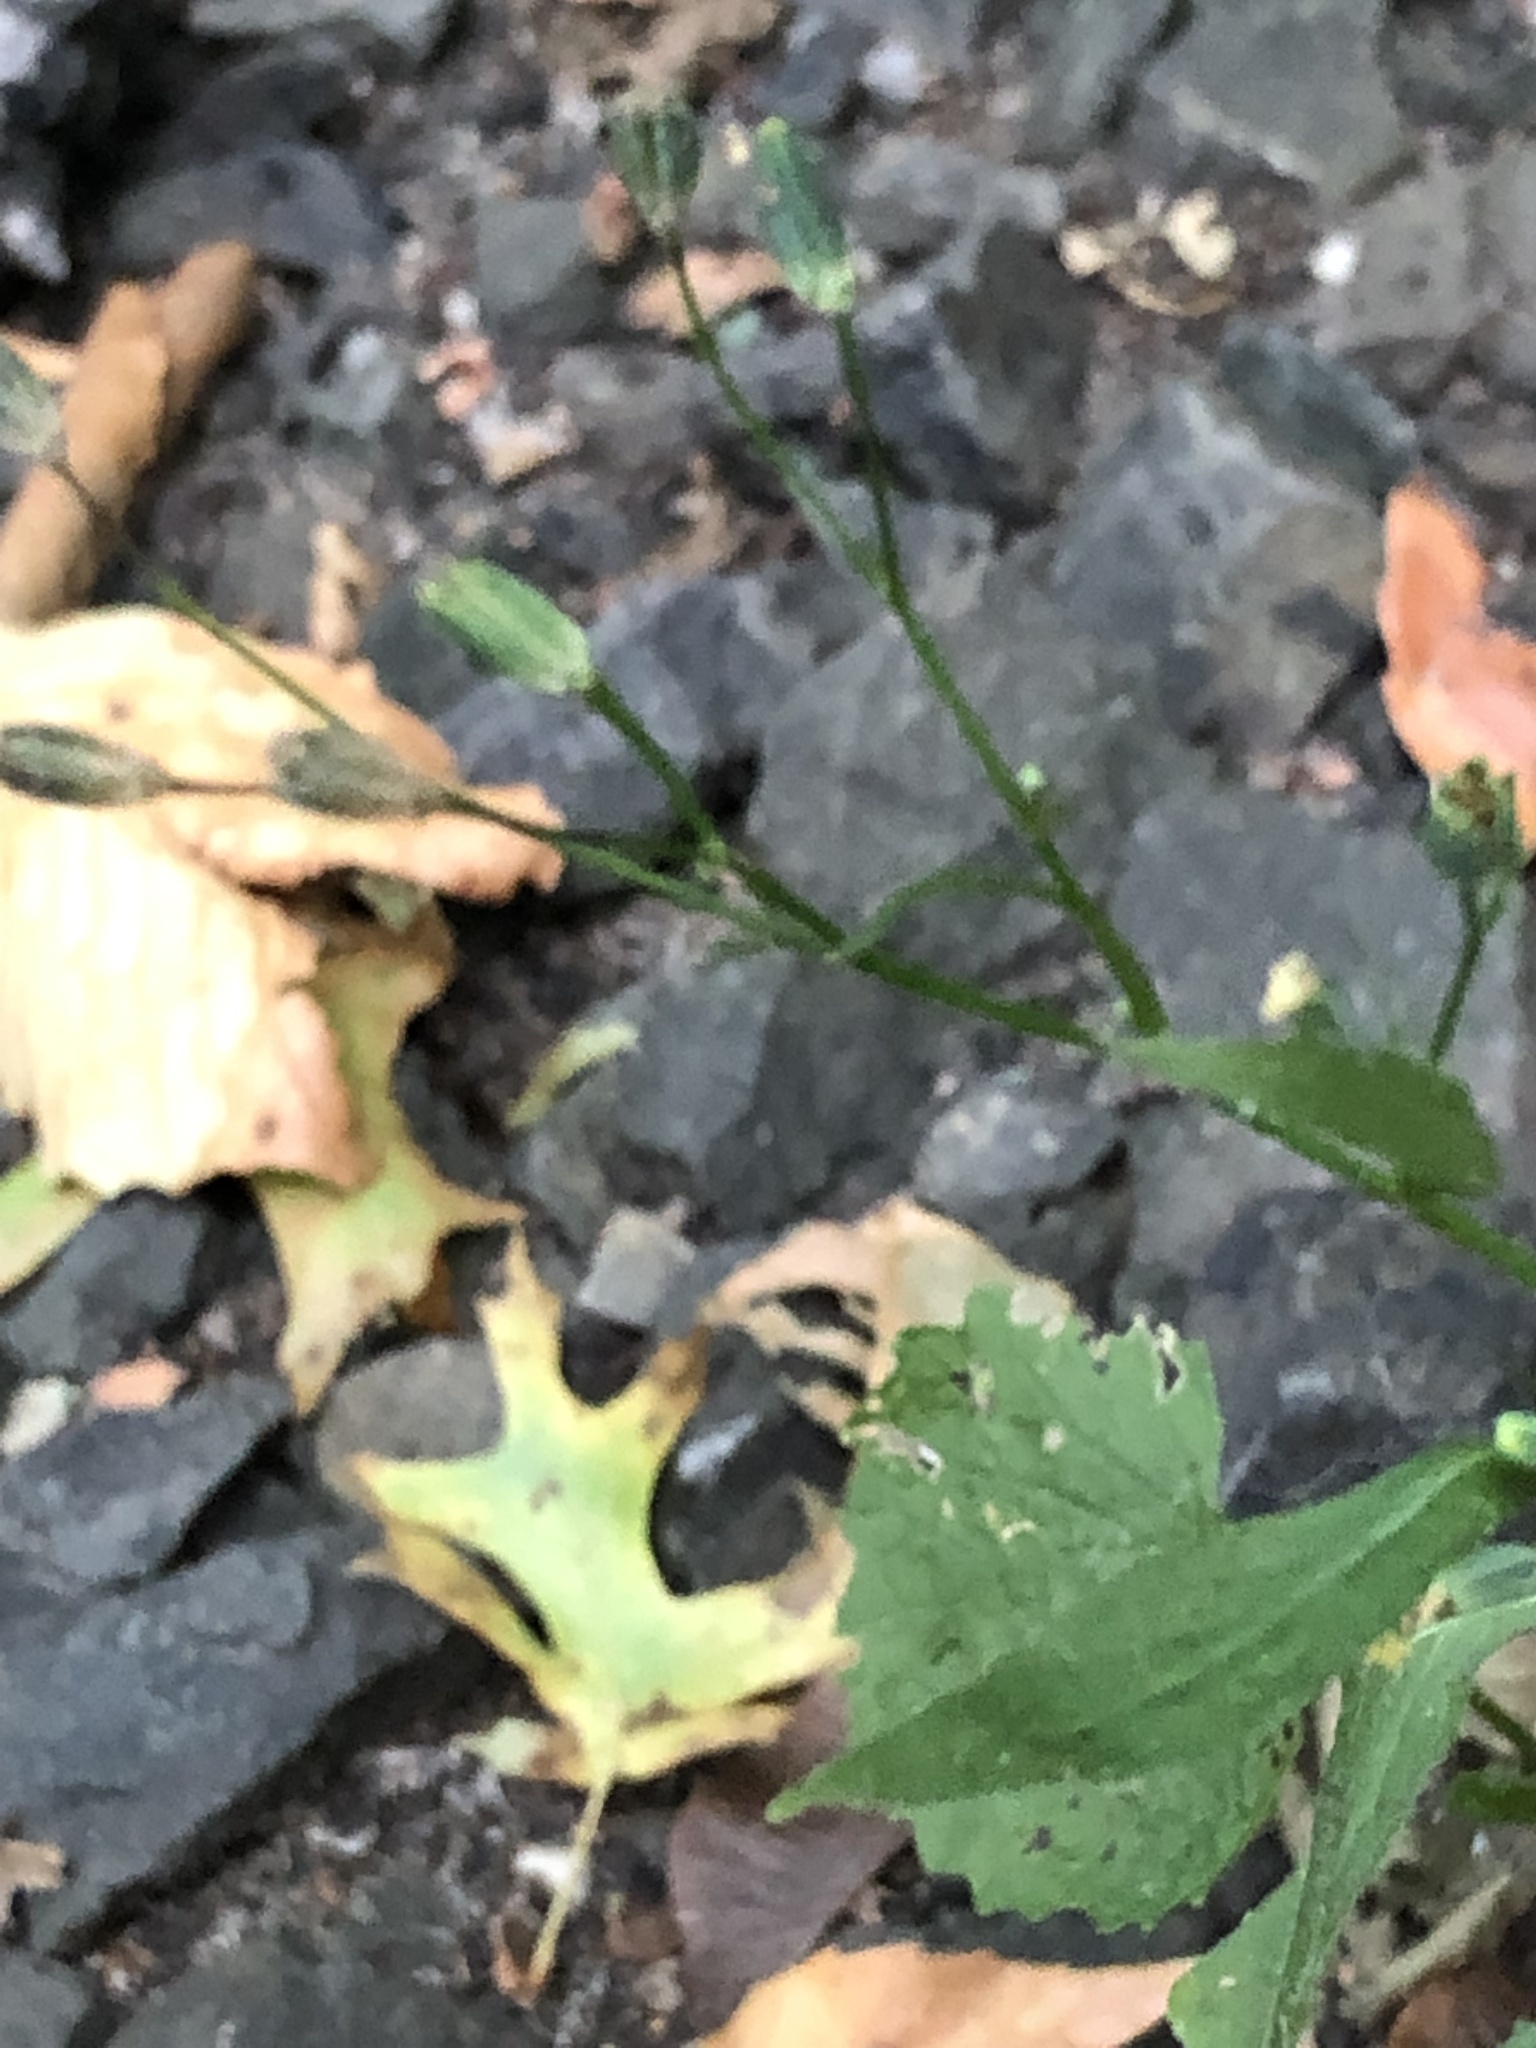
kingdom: Plantae
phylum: Tracheophyta
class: Magnoliopsida
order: Asterales
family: Asteraceae
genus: Lapsana
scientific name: Lapsana communis
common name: Nipplewort
